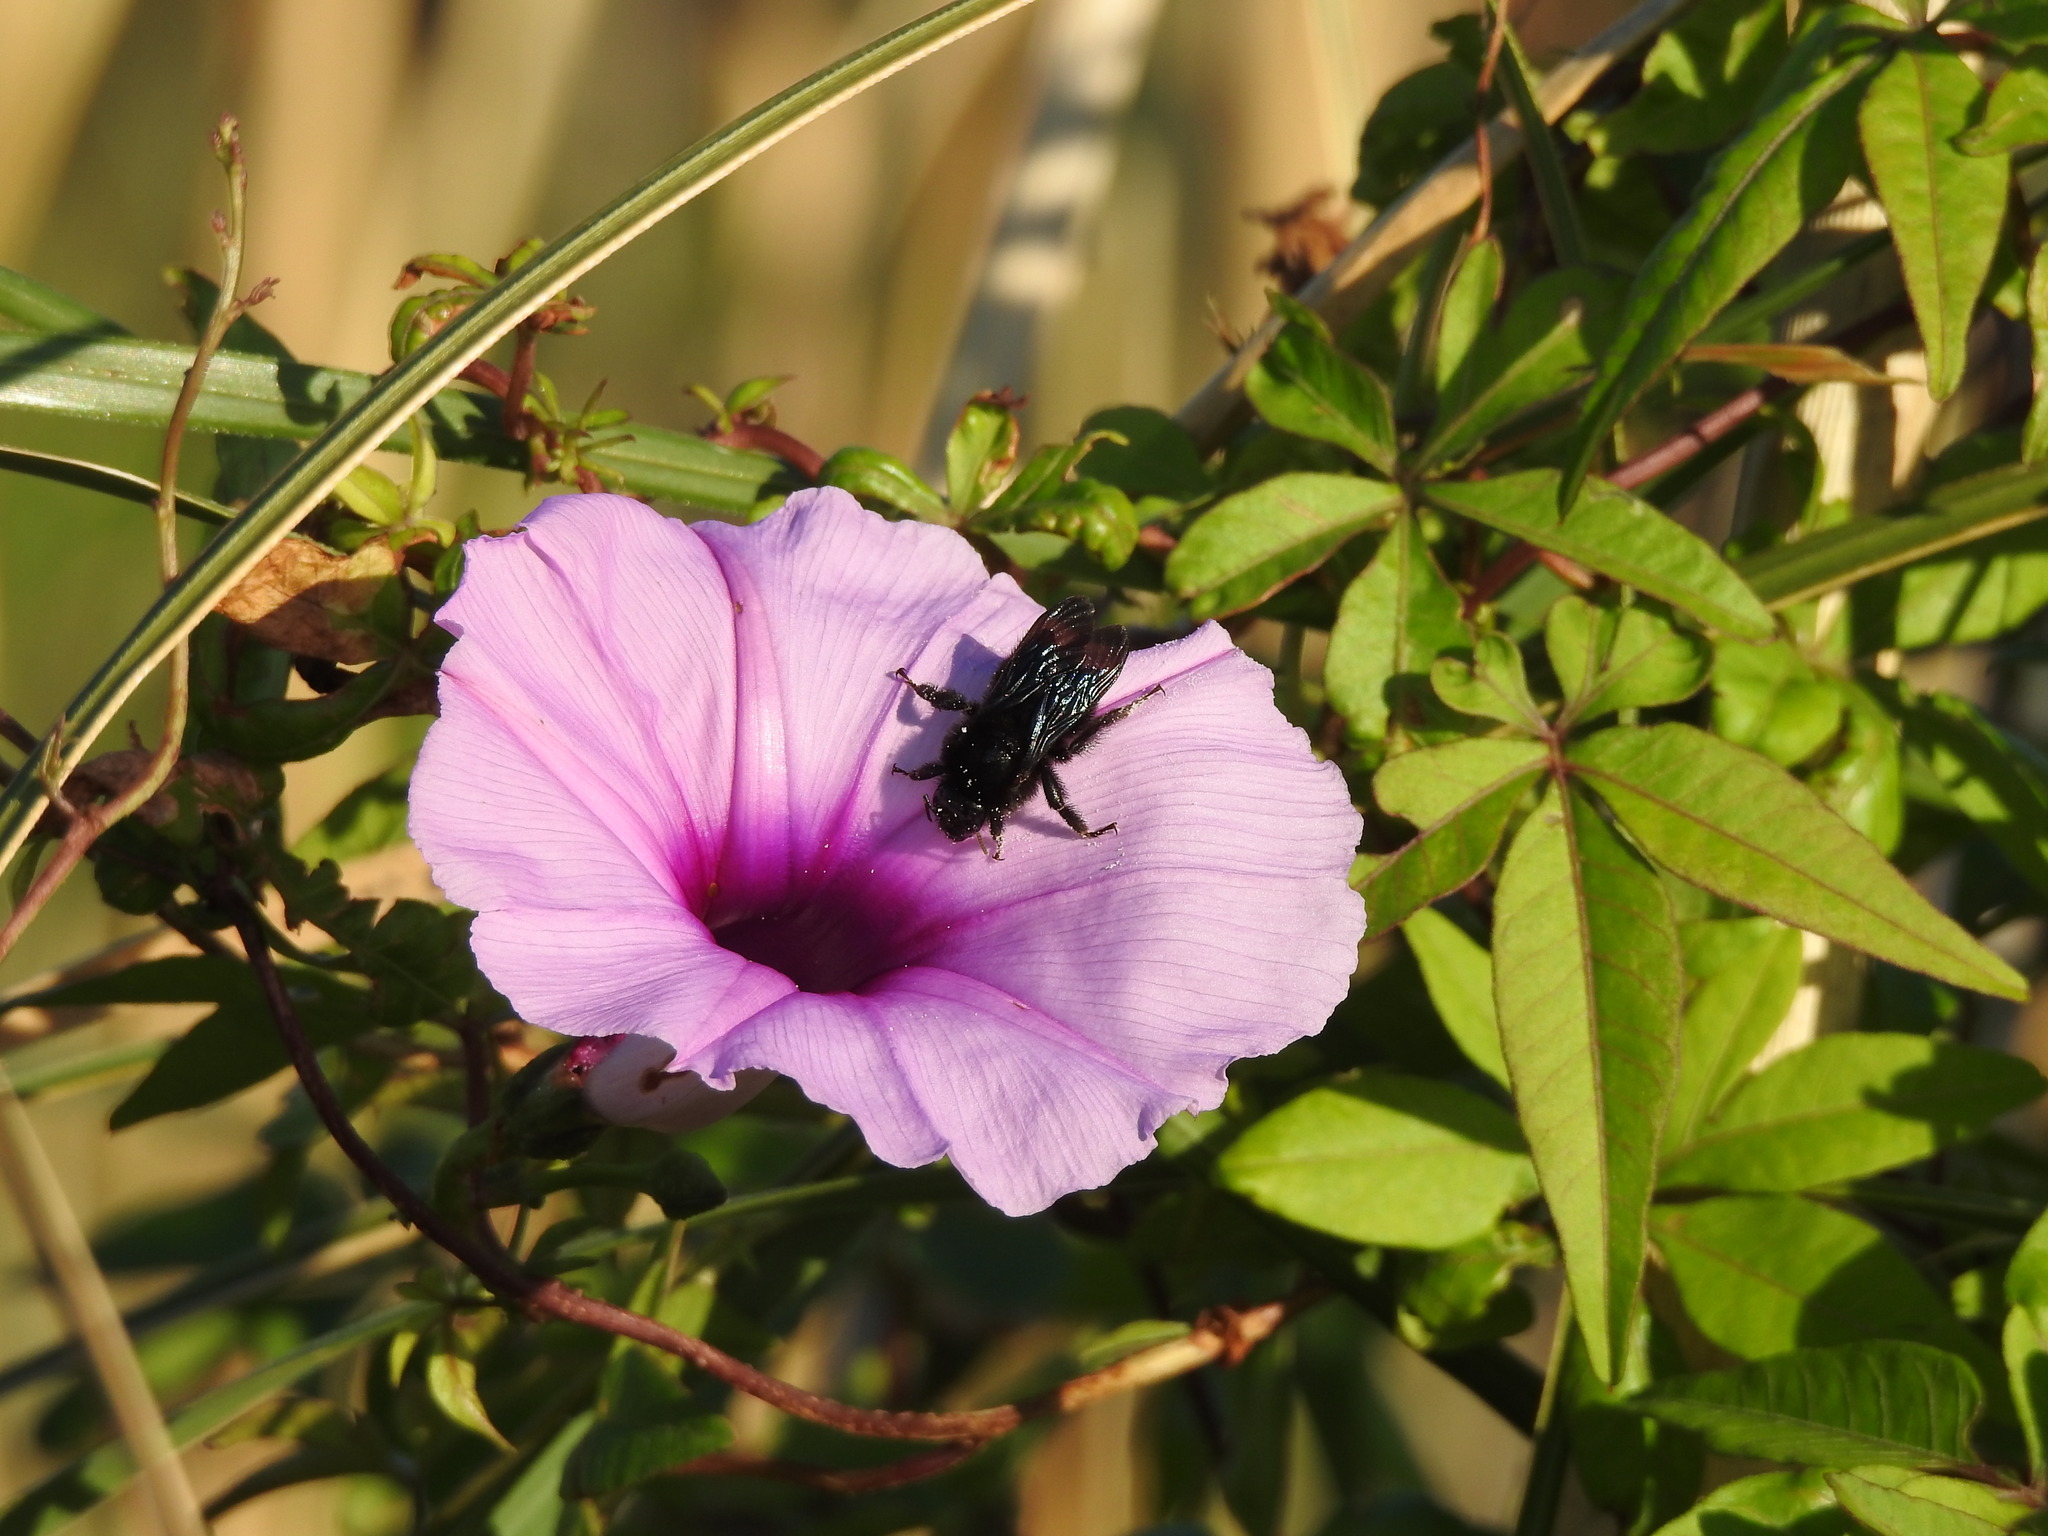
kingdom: Plantae
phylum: Tracheophyta
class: Magnoliopsida
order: Solanales
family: Convolvulaceae
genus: Ipomoea
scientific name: Ipomoea cairica
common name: Mile a minute vine
